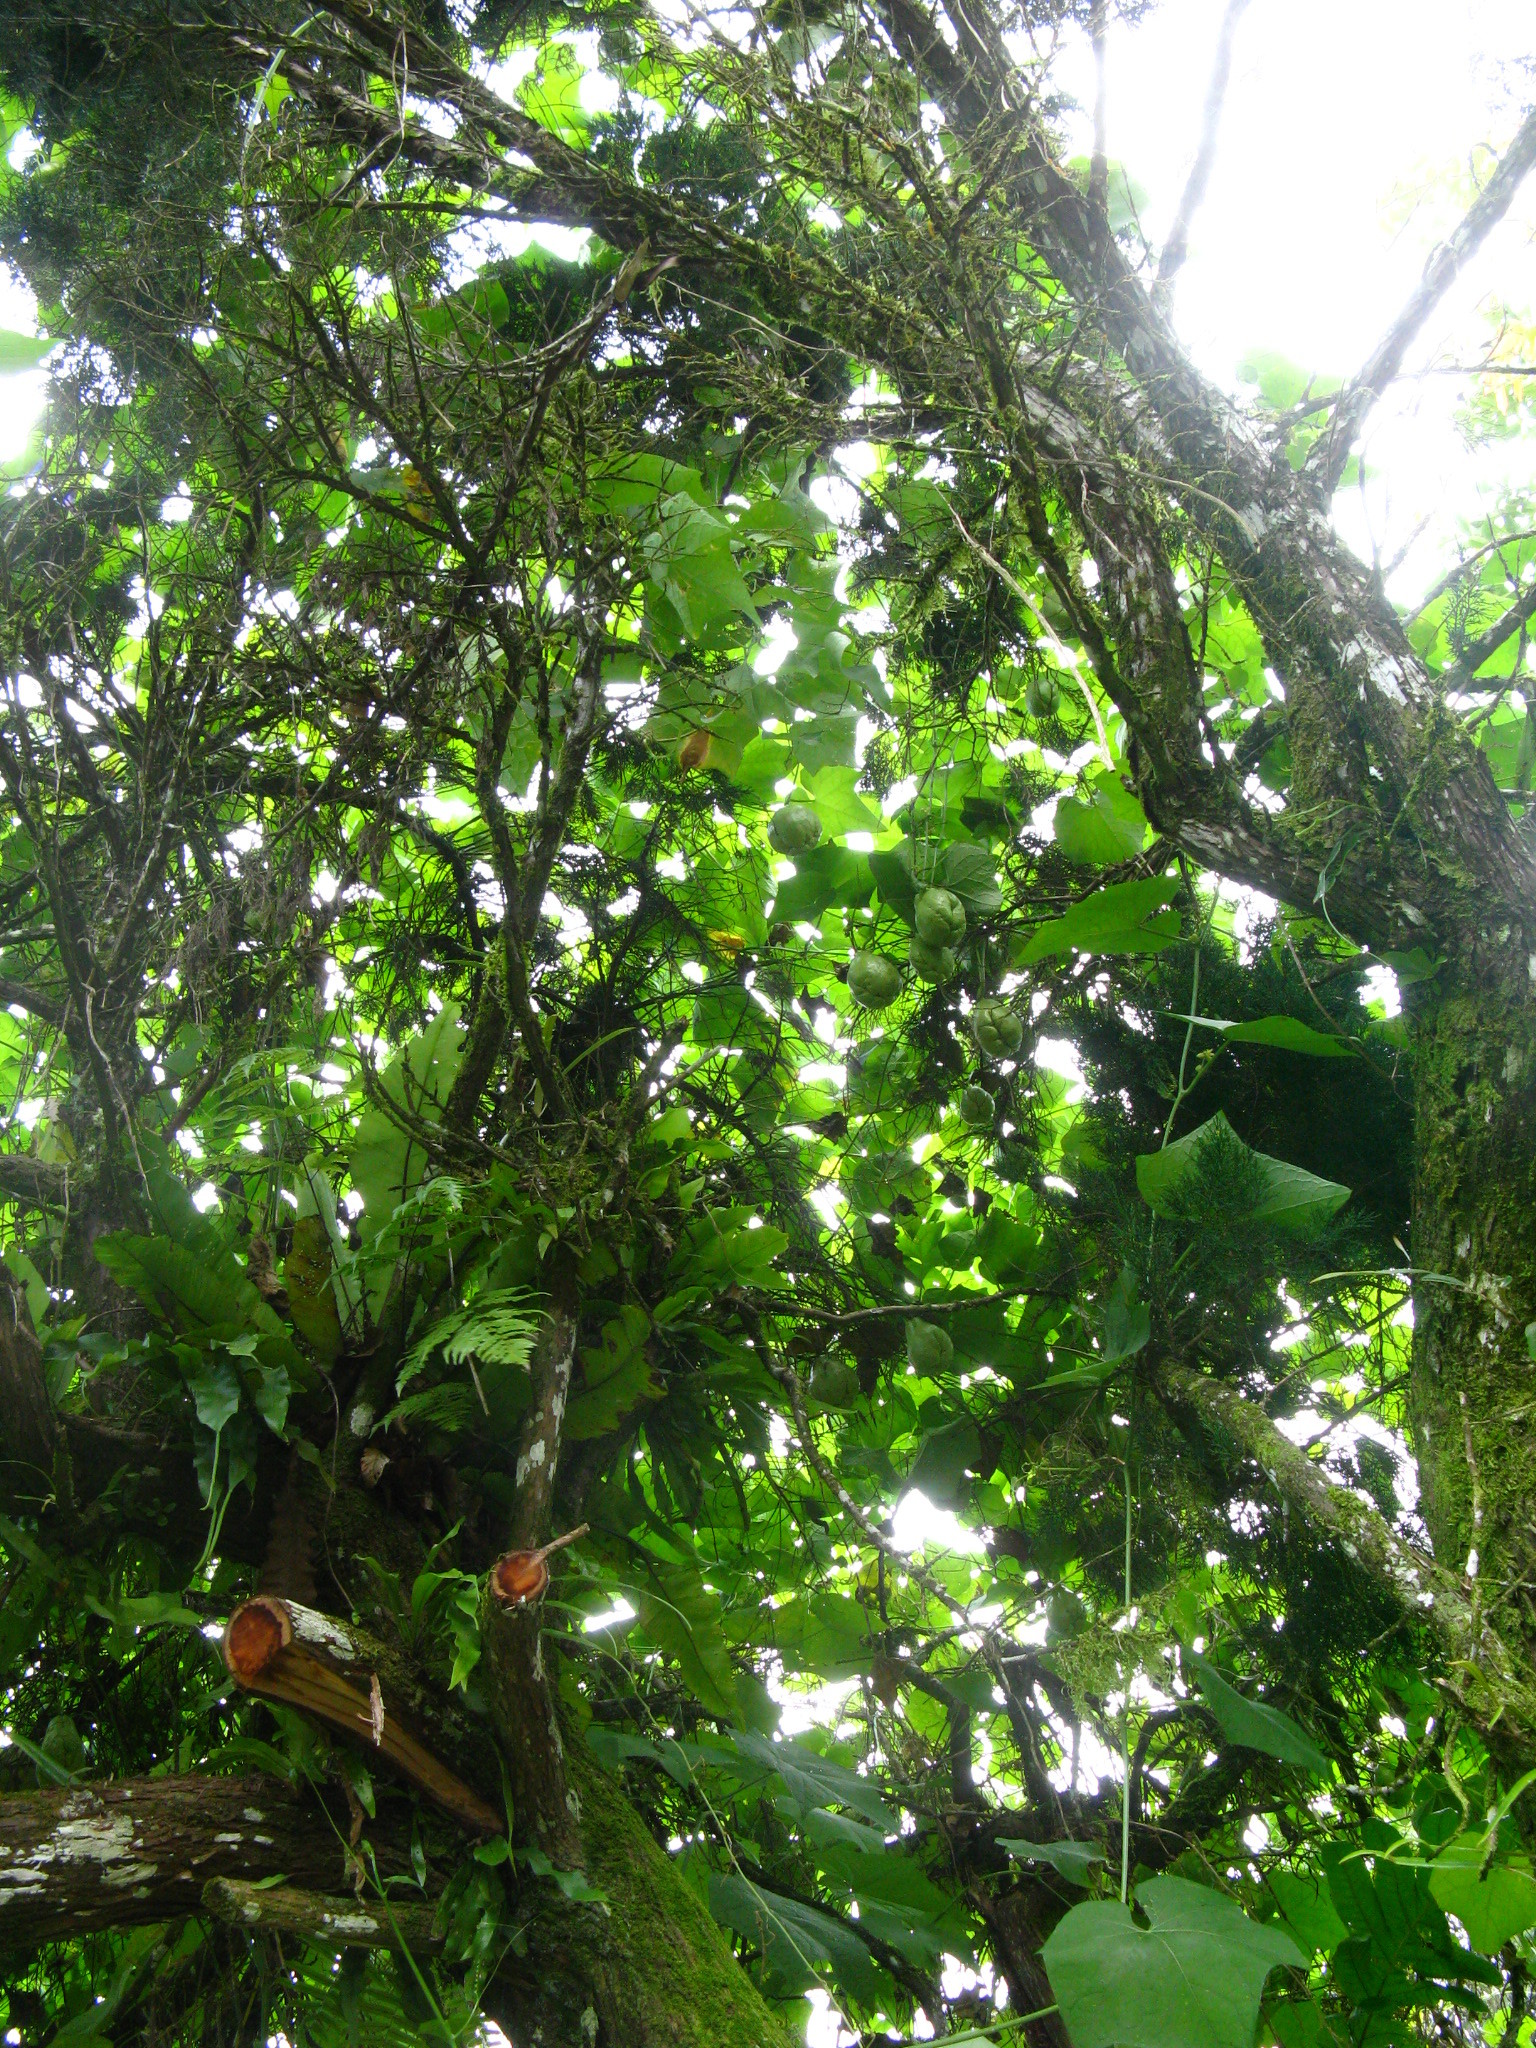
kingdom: Plantae
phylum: Tracheophyta
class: Magnoliopsida
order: Cucurbitales
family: Cucurbitaceae
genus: Sechium
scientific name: Sechium edule
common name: Chayote
